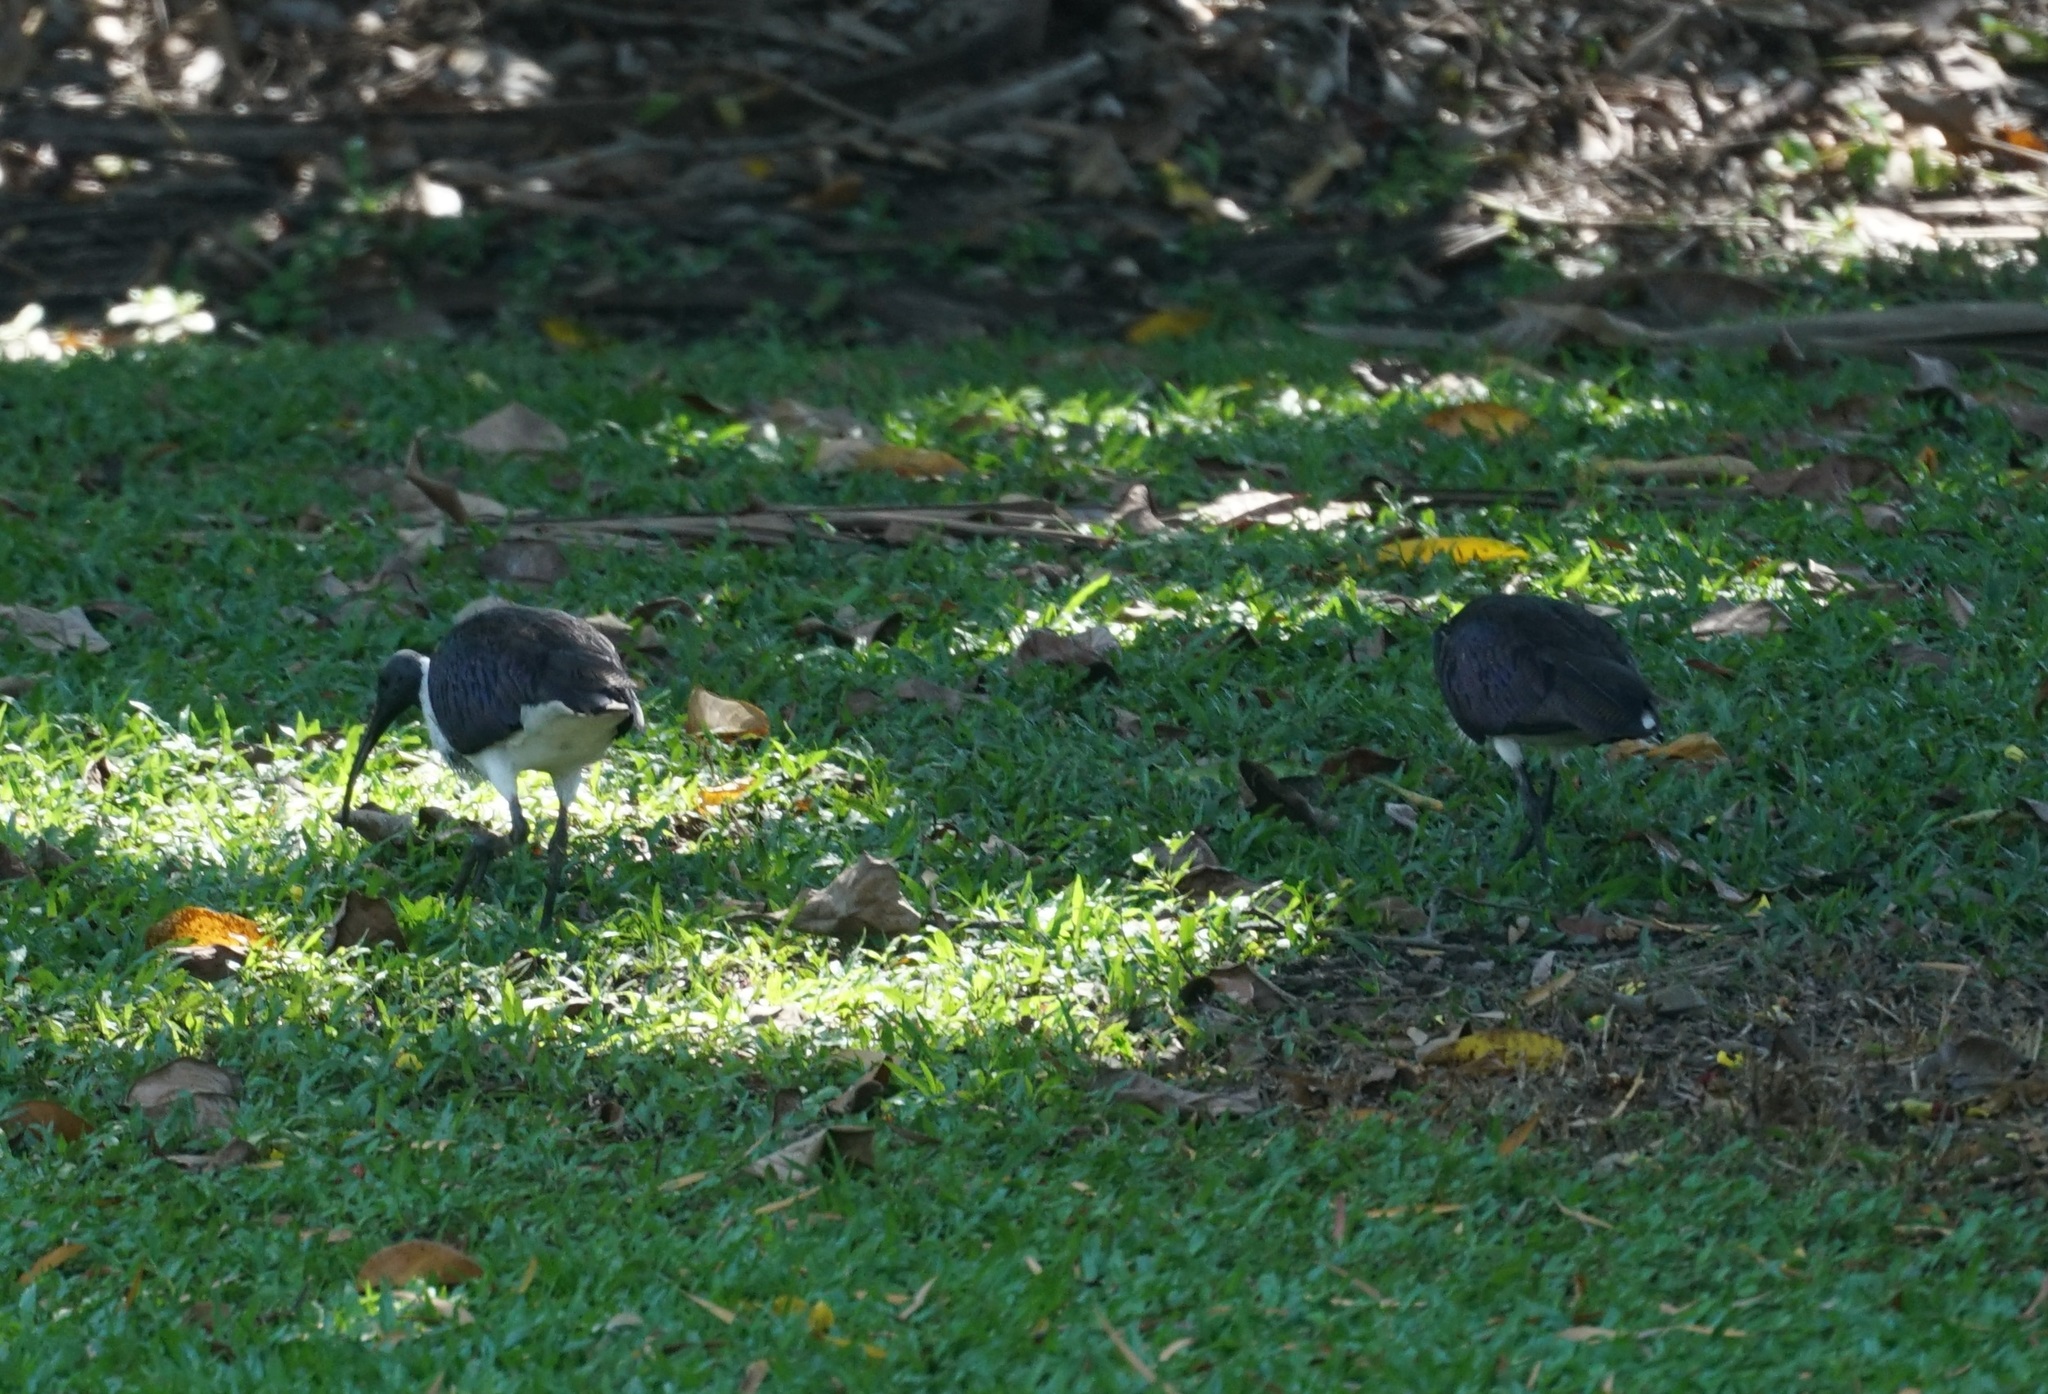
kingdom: Animalia
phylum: Chordata
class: Aves
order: Pelecaniformes
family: Threskiornithidae
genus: Threskiornis
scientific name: Threskiornis spinicollis
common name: Straw-necked ibis
